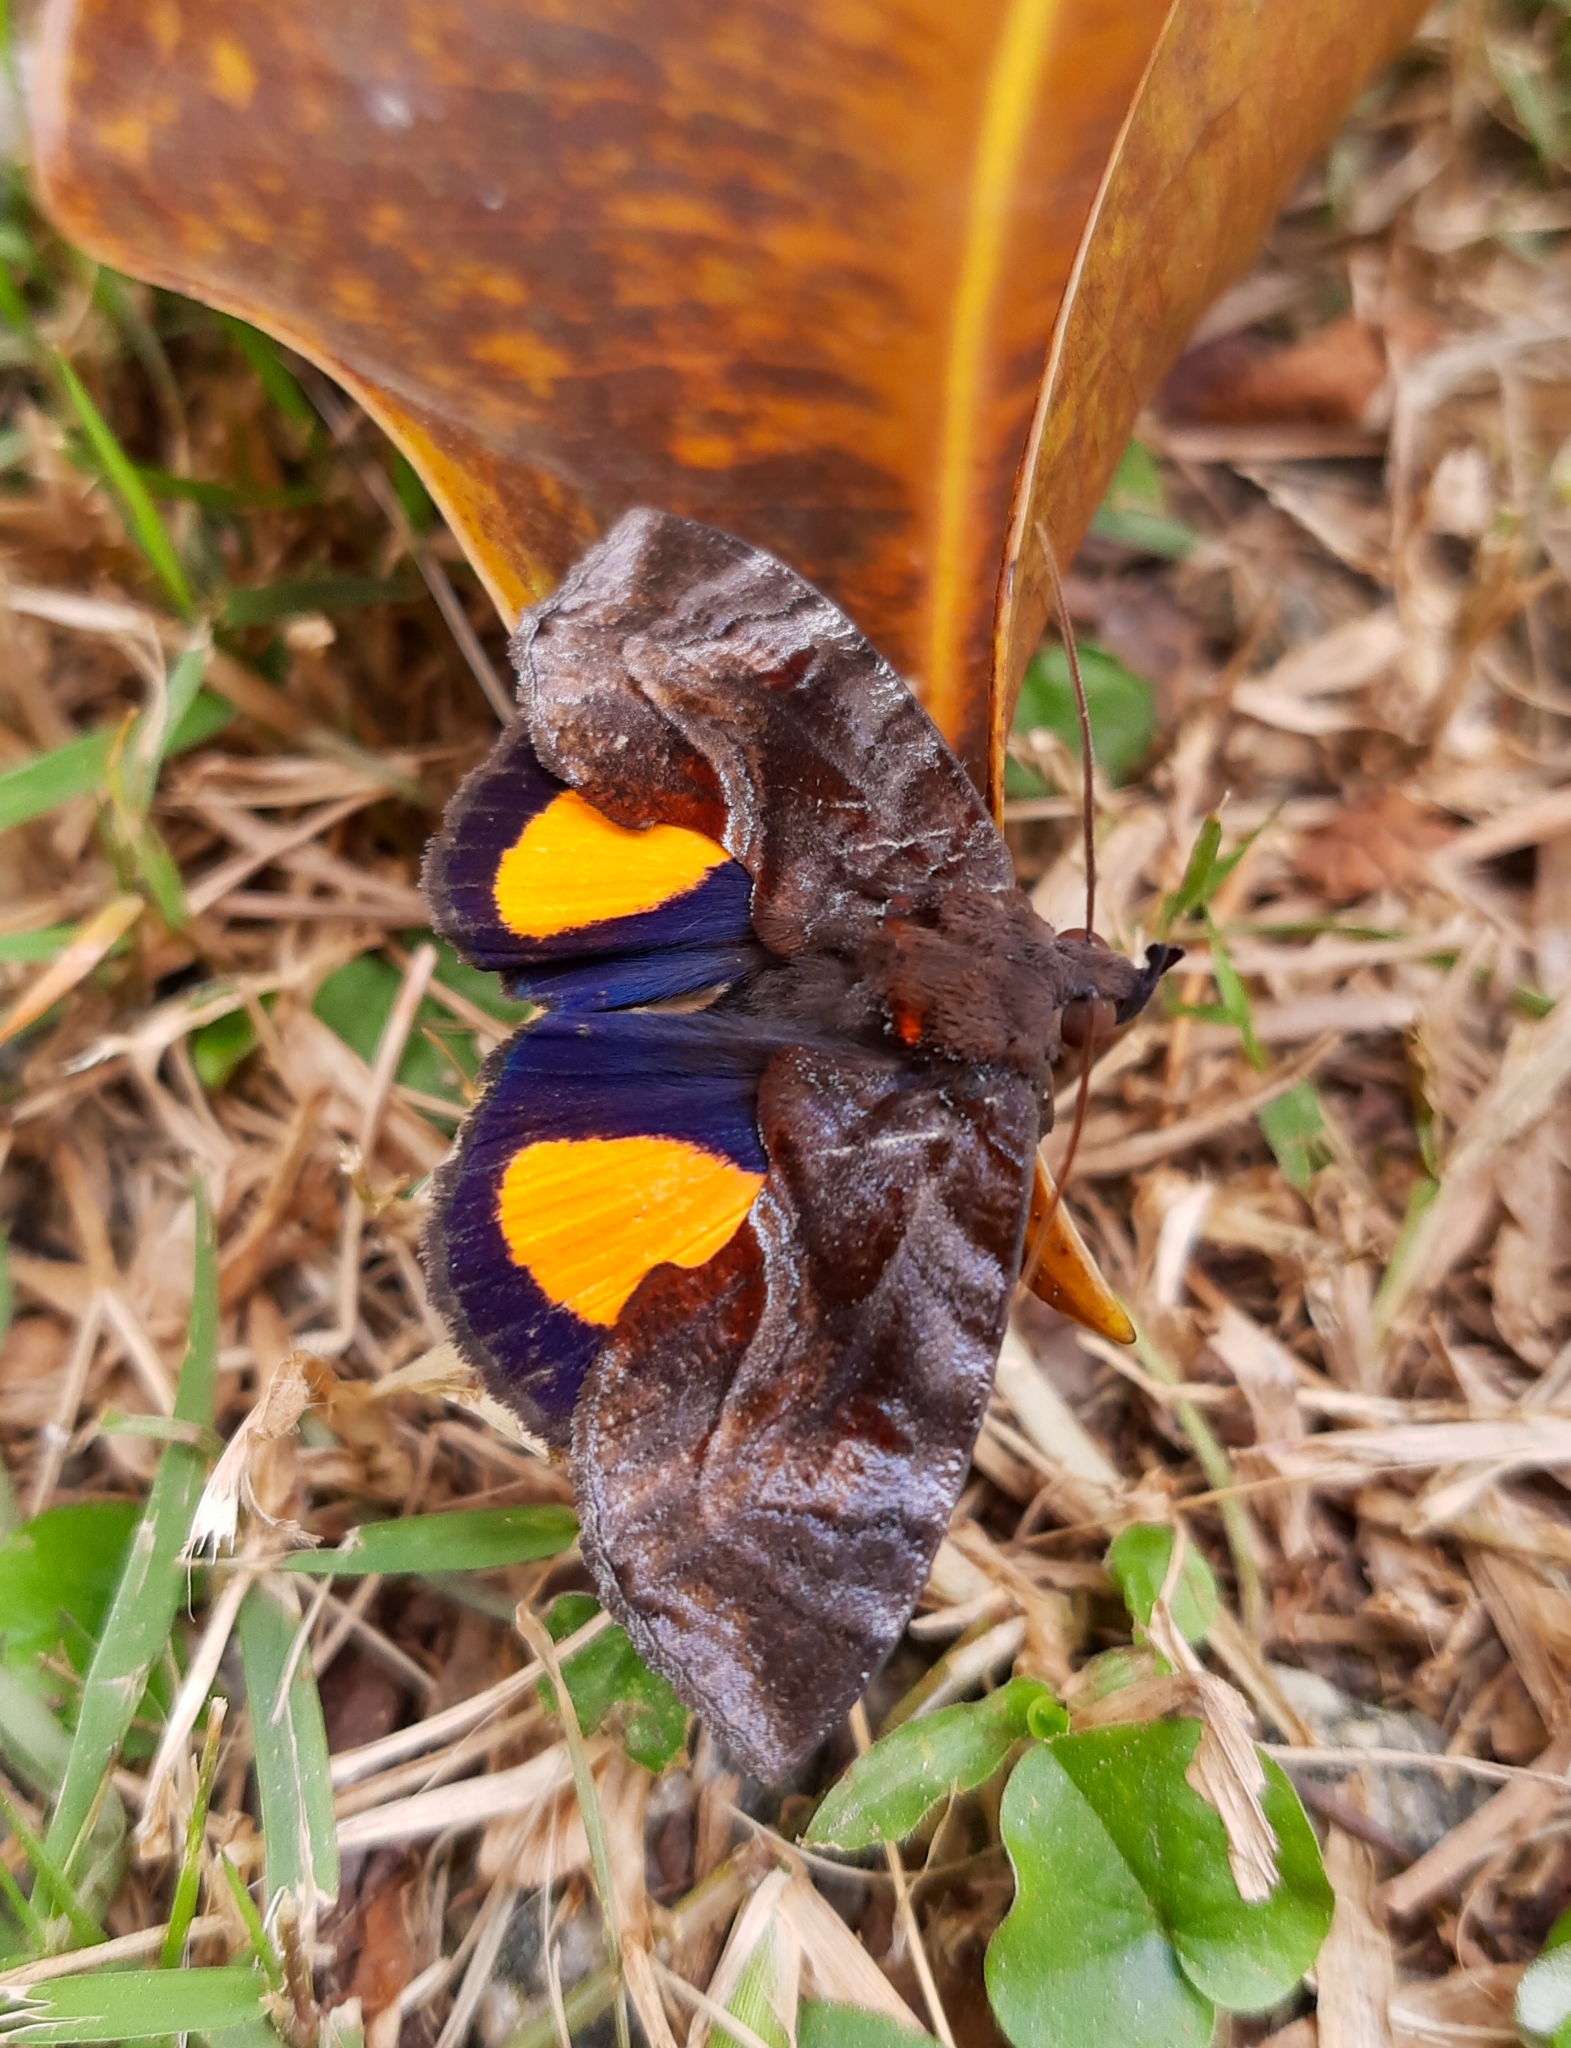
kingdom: Animalia
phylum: Arthropoda
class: Insecta
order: Lepidoptera
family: Erebidae
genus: Ferenta
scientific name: Ferenta cacica
